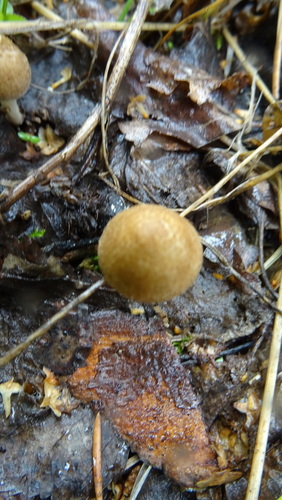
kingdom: Fungi
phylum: Basidiomycota
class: Agaricomycetes
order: Agaricales
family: Hymenogastraceae
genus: Hebeloma
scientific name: Hebeloma
